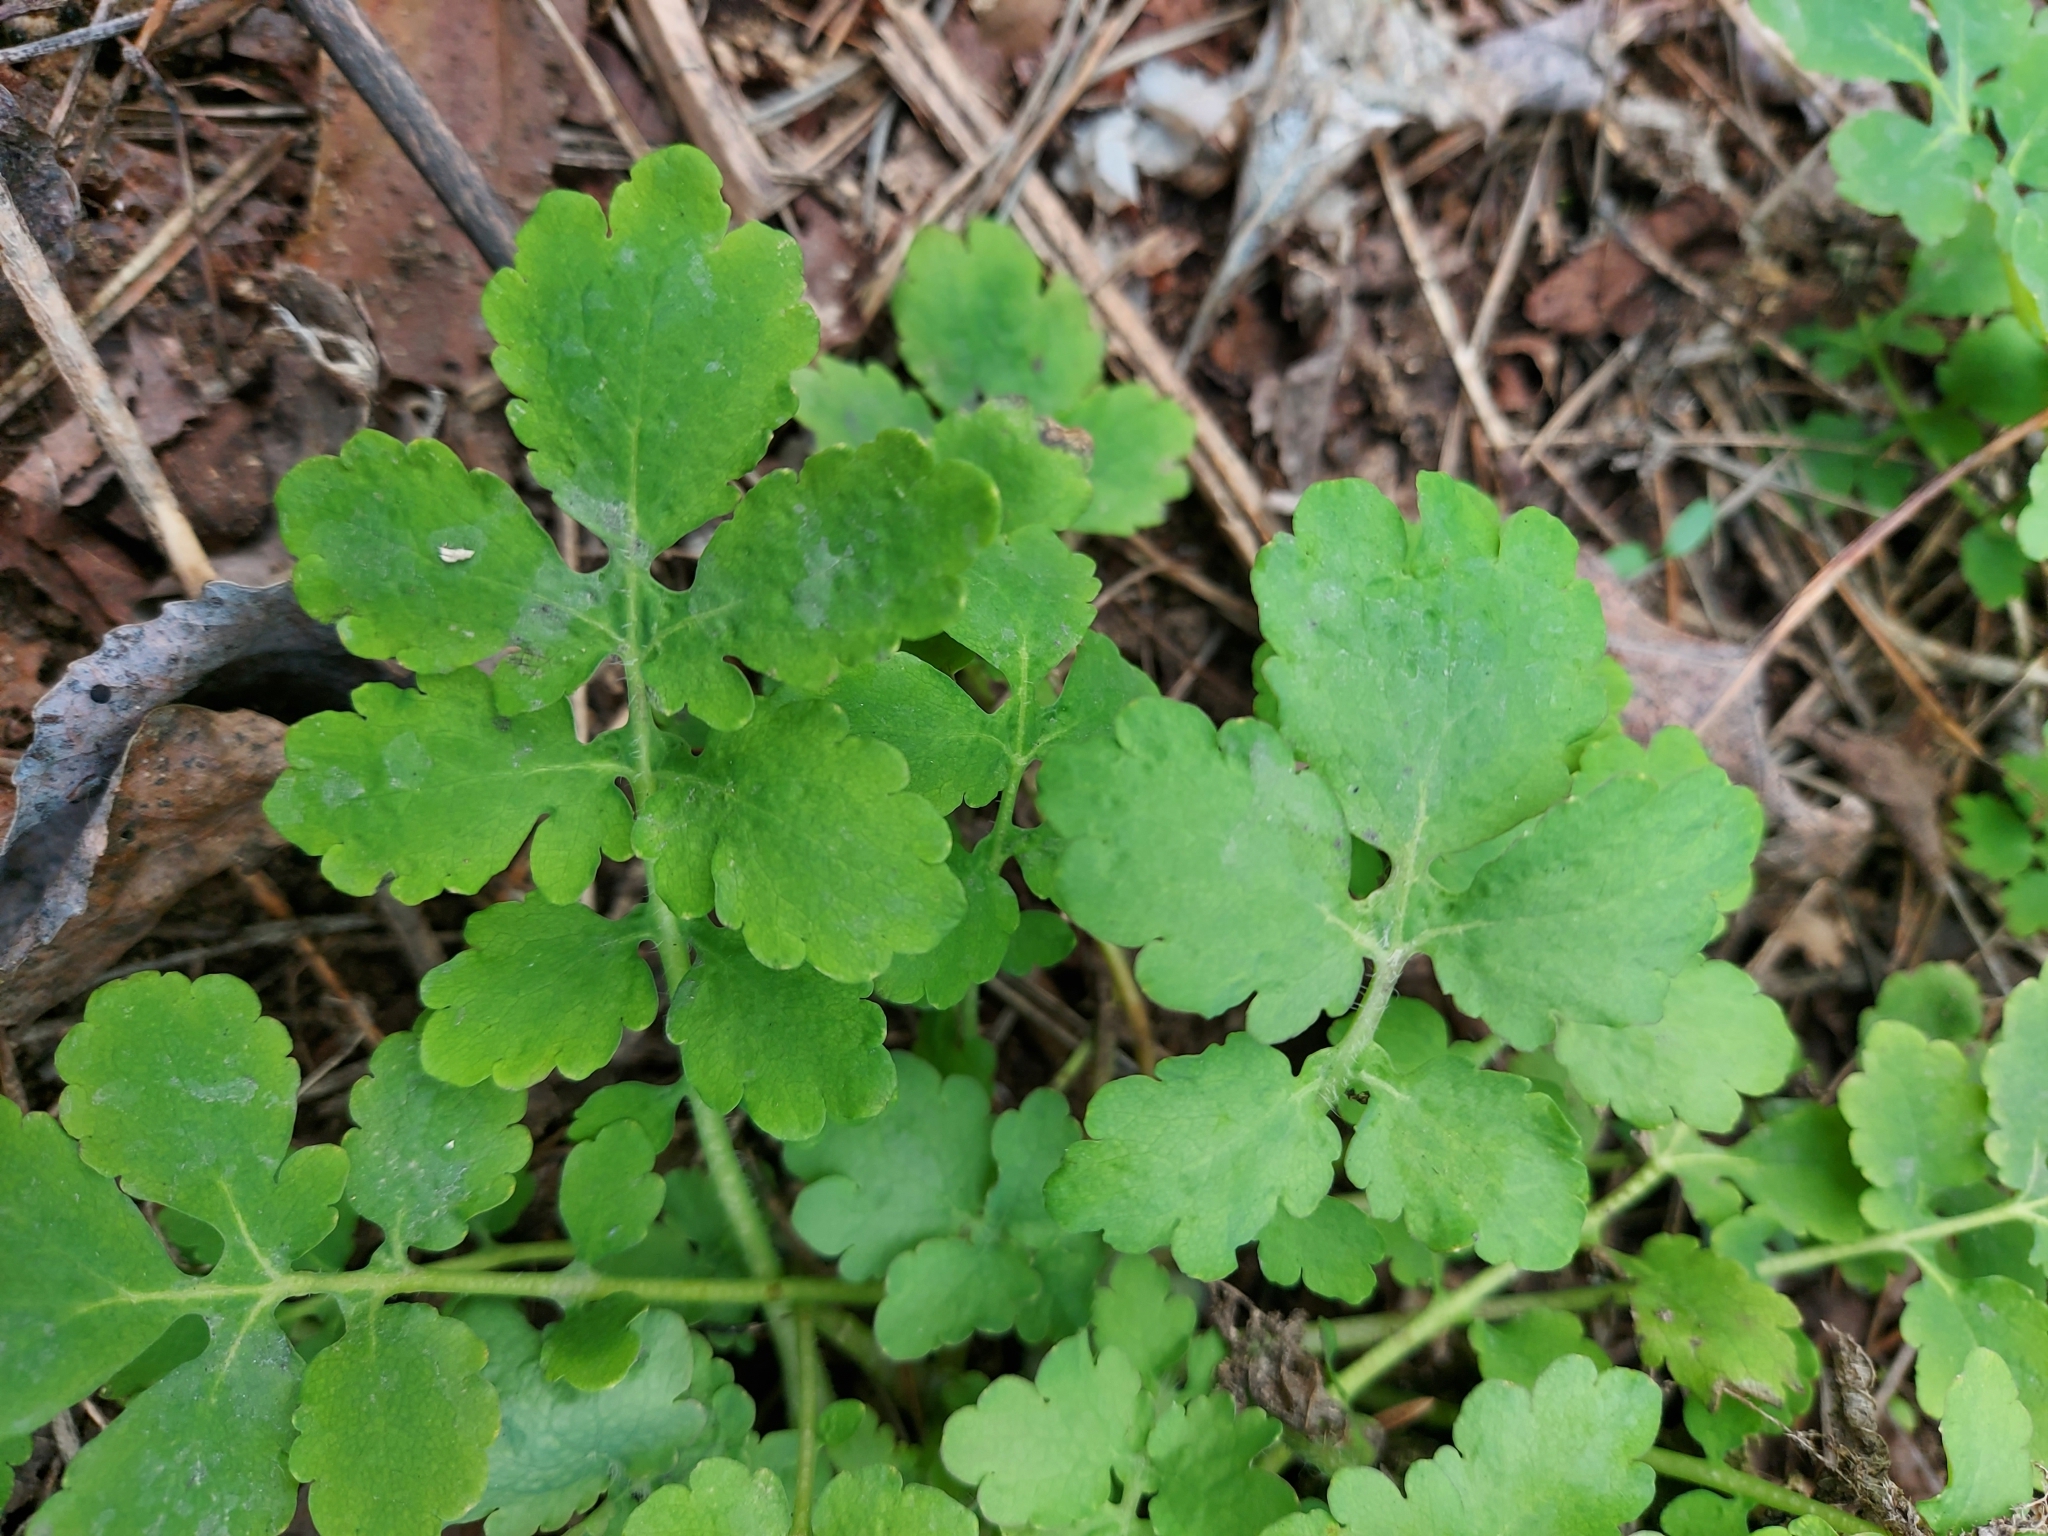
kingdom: Plantae
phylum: Tracheophyta
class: Magnoliopsida
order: Ranunculales
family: Papaveraceae
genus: Chelidonium
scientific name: Chelidonium majus
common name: Greater celandine
